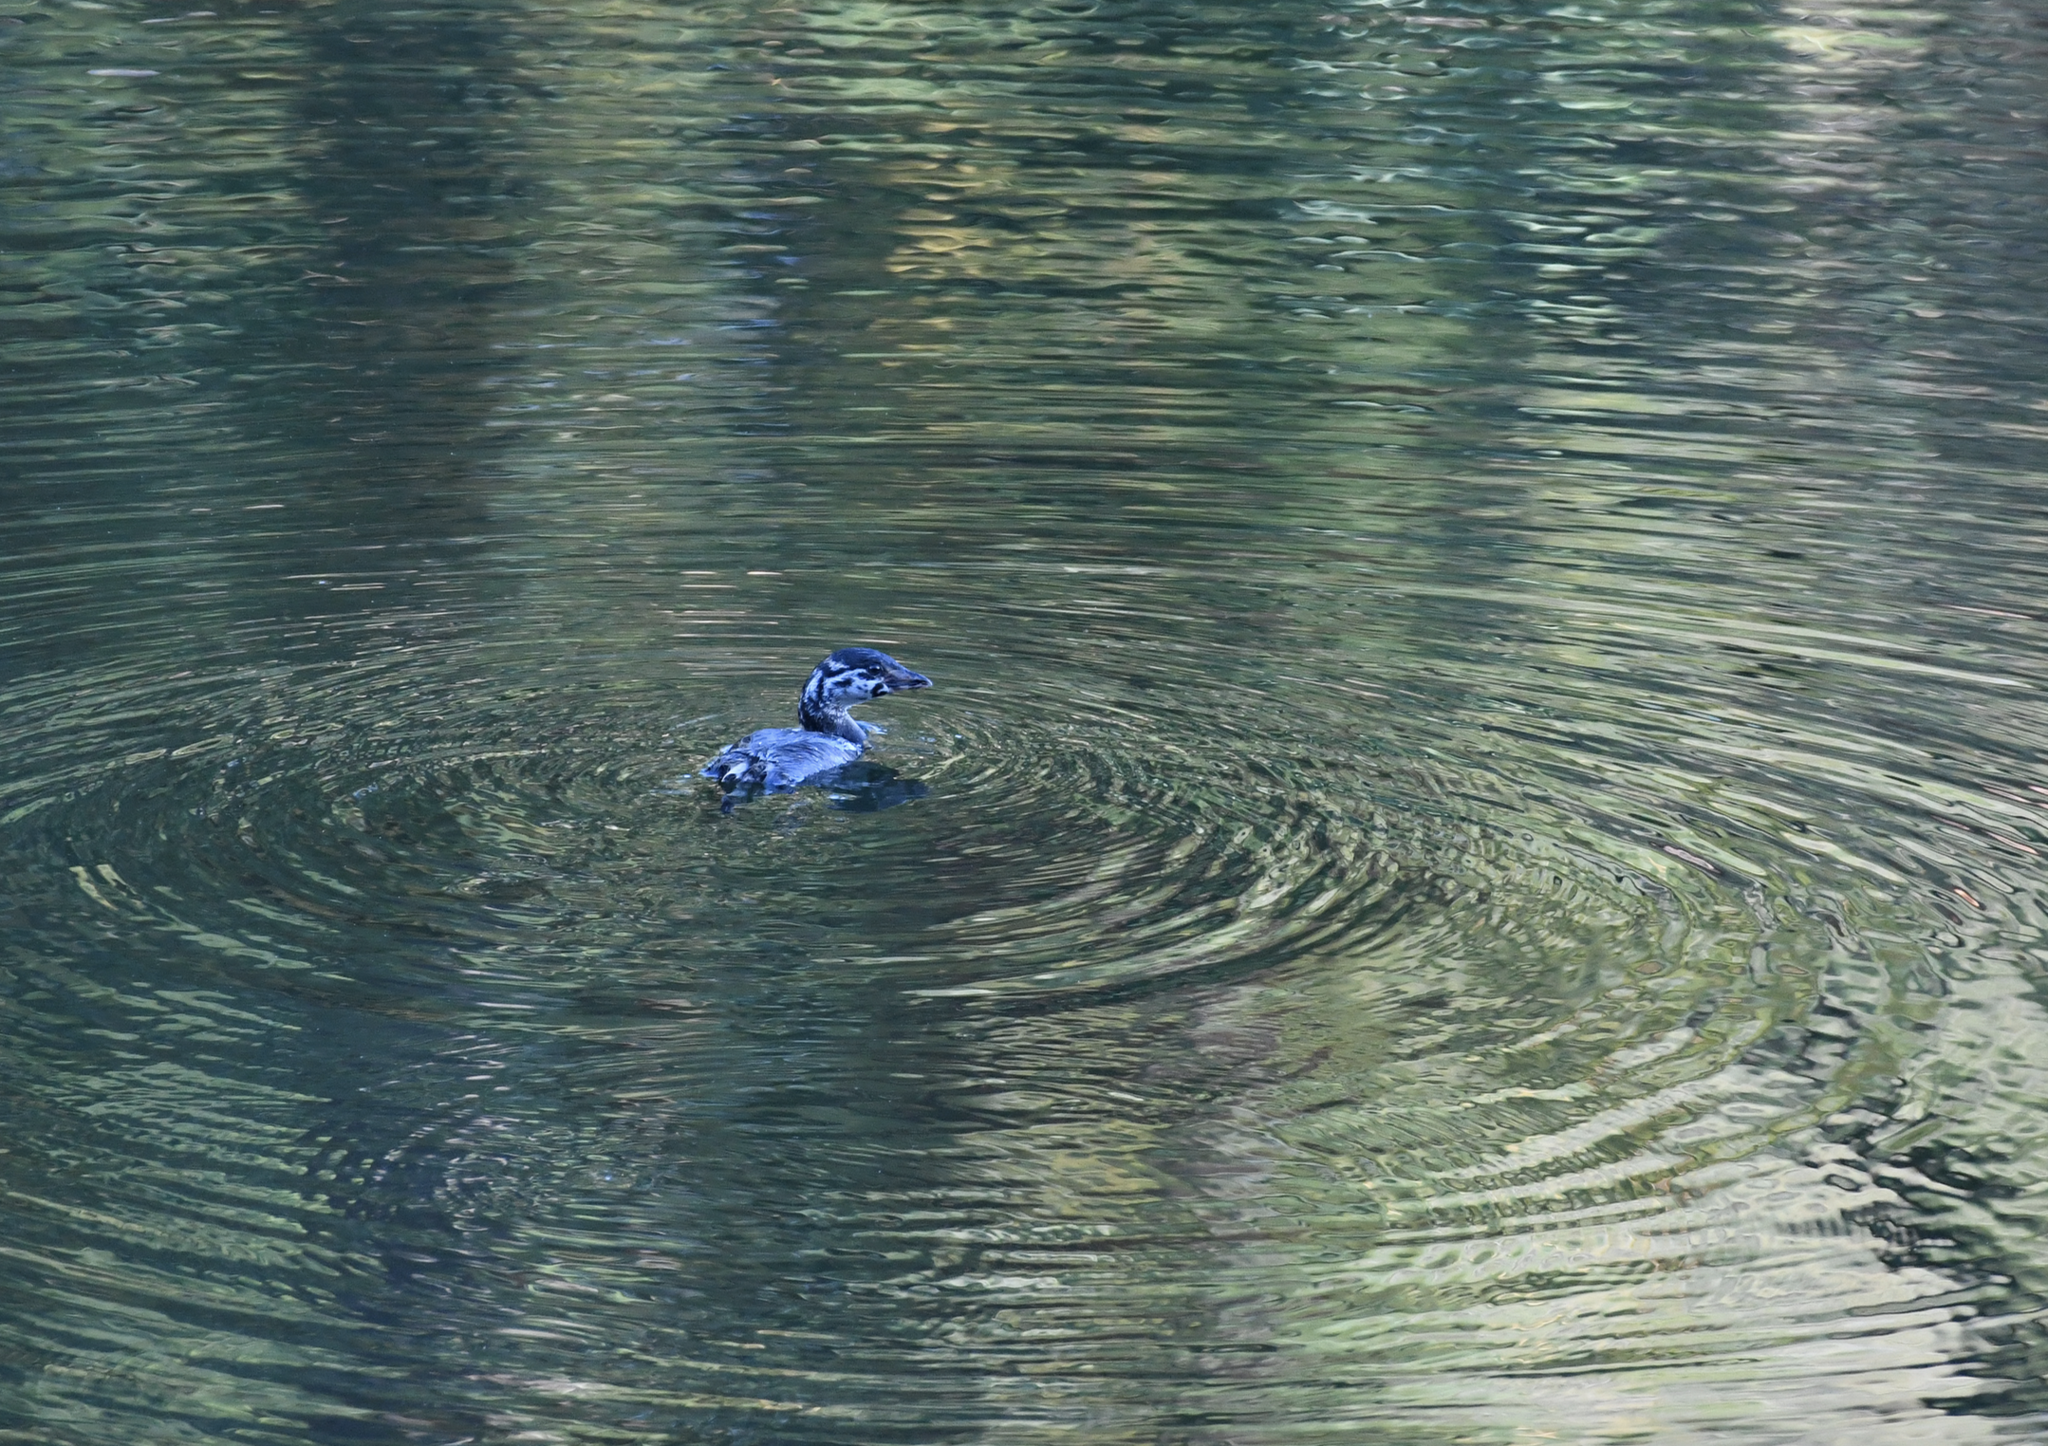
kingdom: Animalia
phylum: Chordata
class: Aves
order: Podicipediformes
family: Podicipedidae
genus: Podilymbus
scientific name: Podilymbus podiceps
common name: Pied-billed grebe
